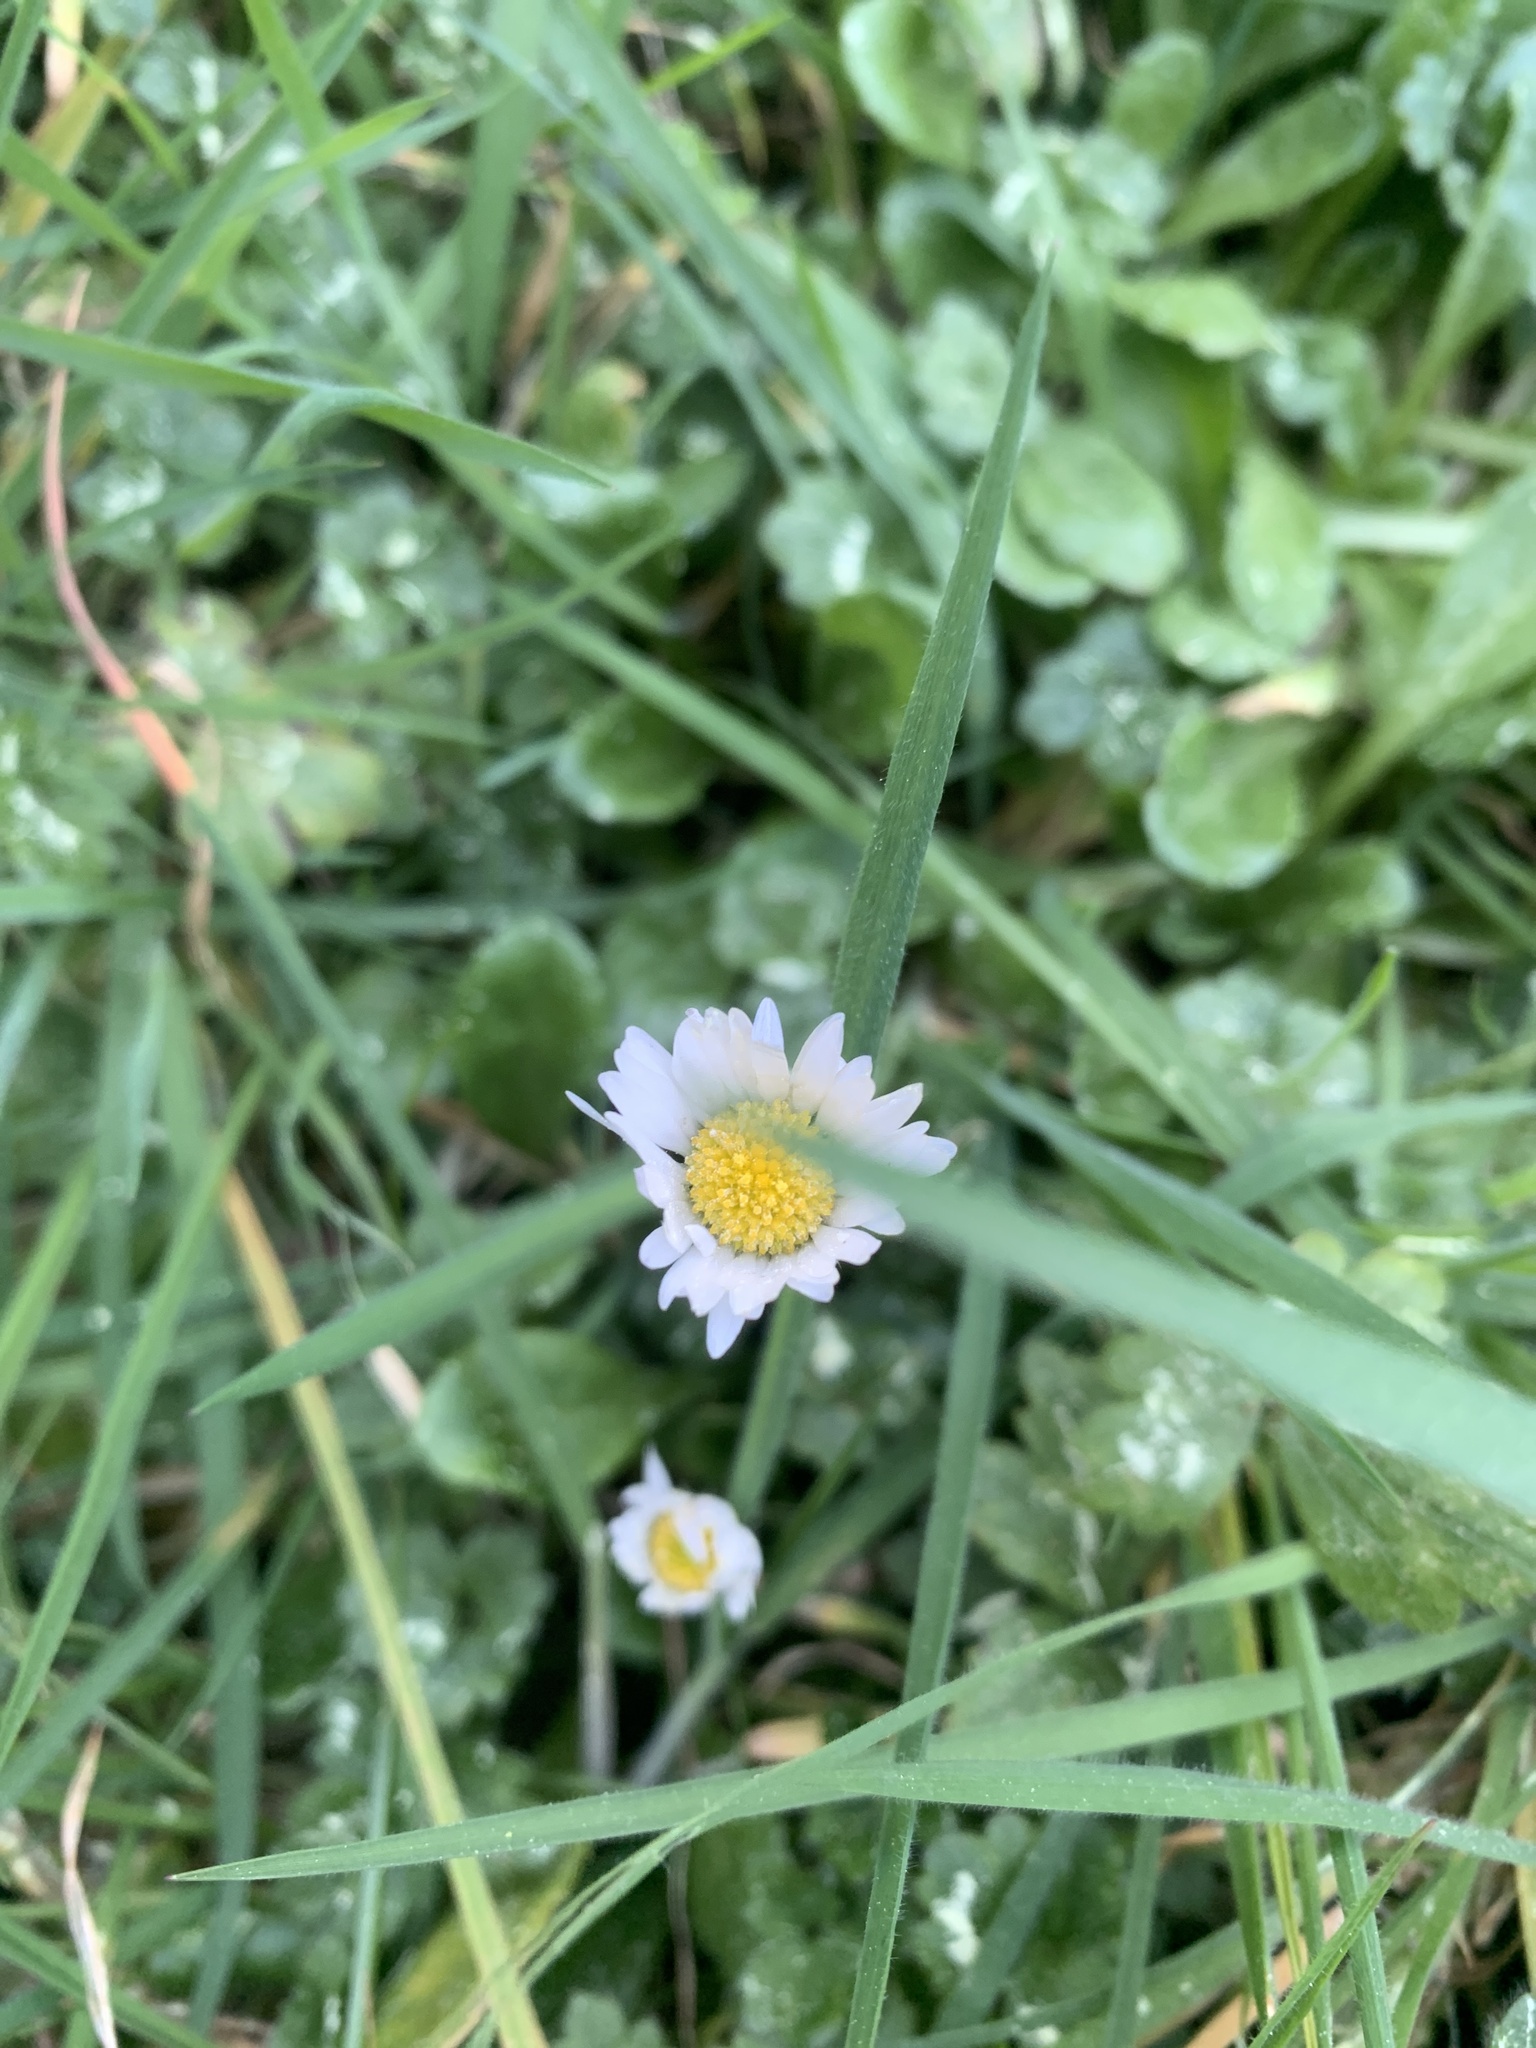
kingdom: Plantae
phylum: Tracheophyta
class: Magnoliopsida
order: Asterales
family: Asteraceae
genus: Bellis
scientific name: Bellis perennis
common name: Lawndaisy
